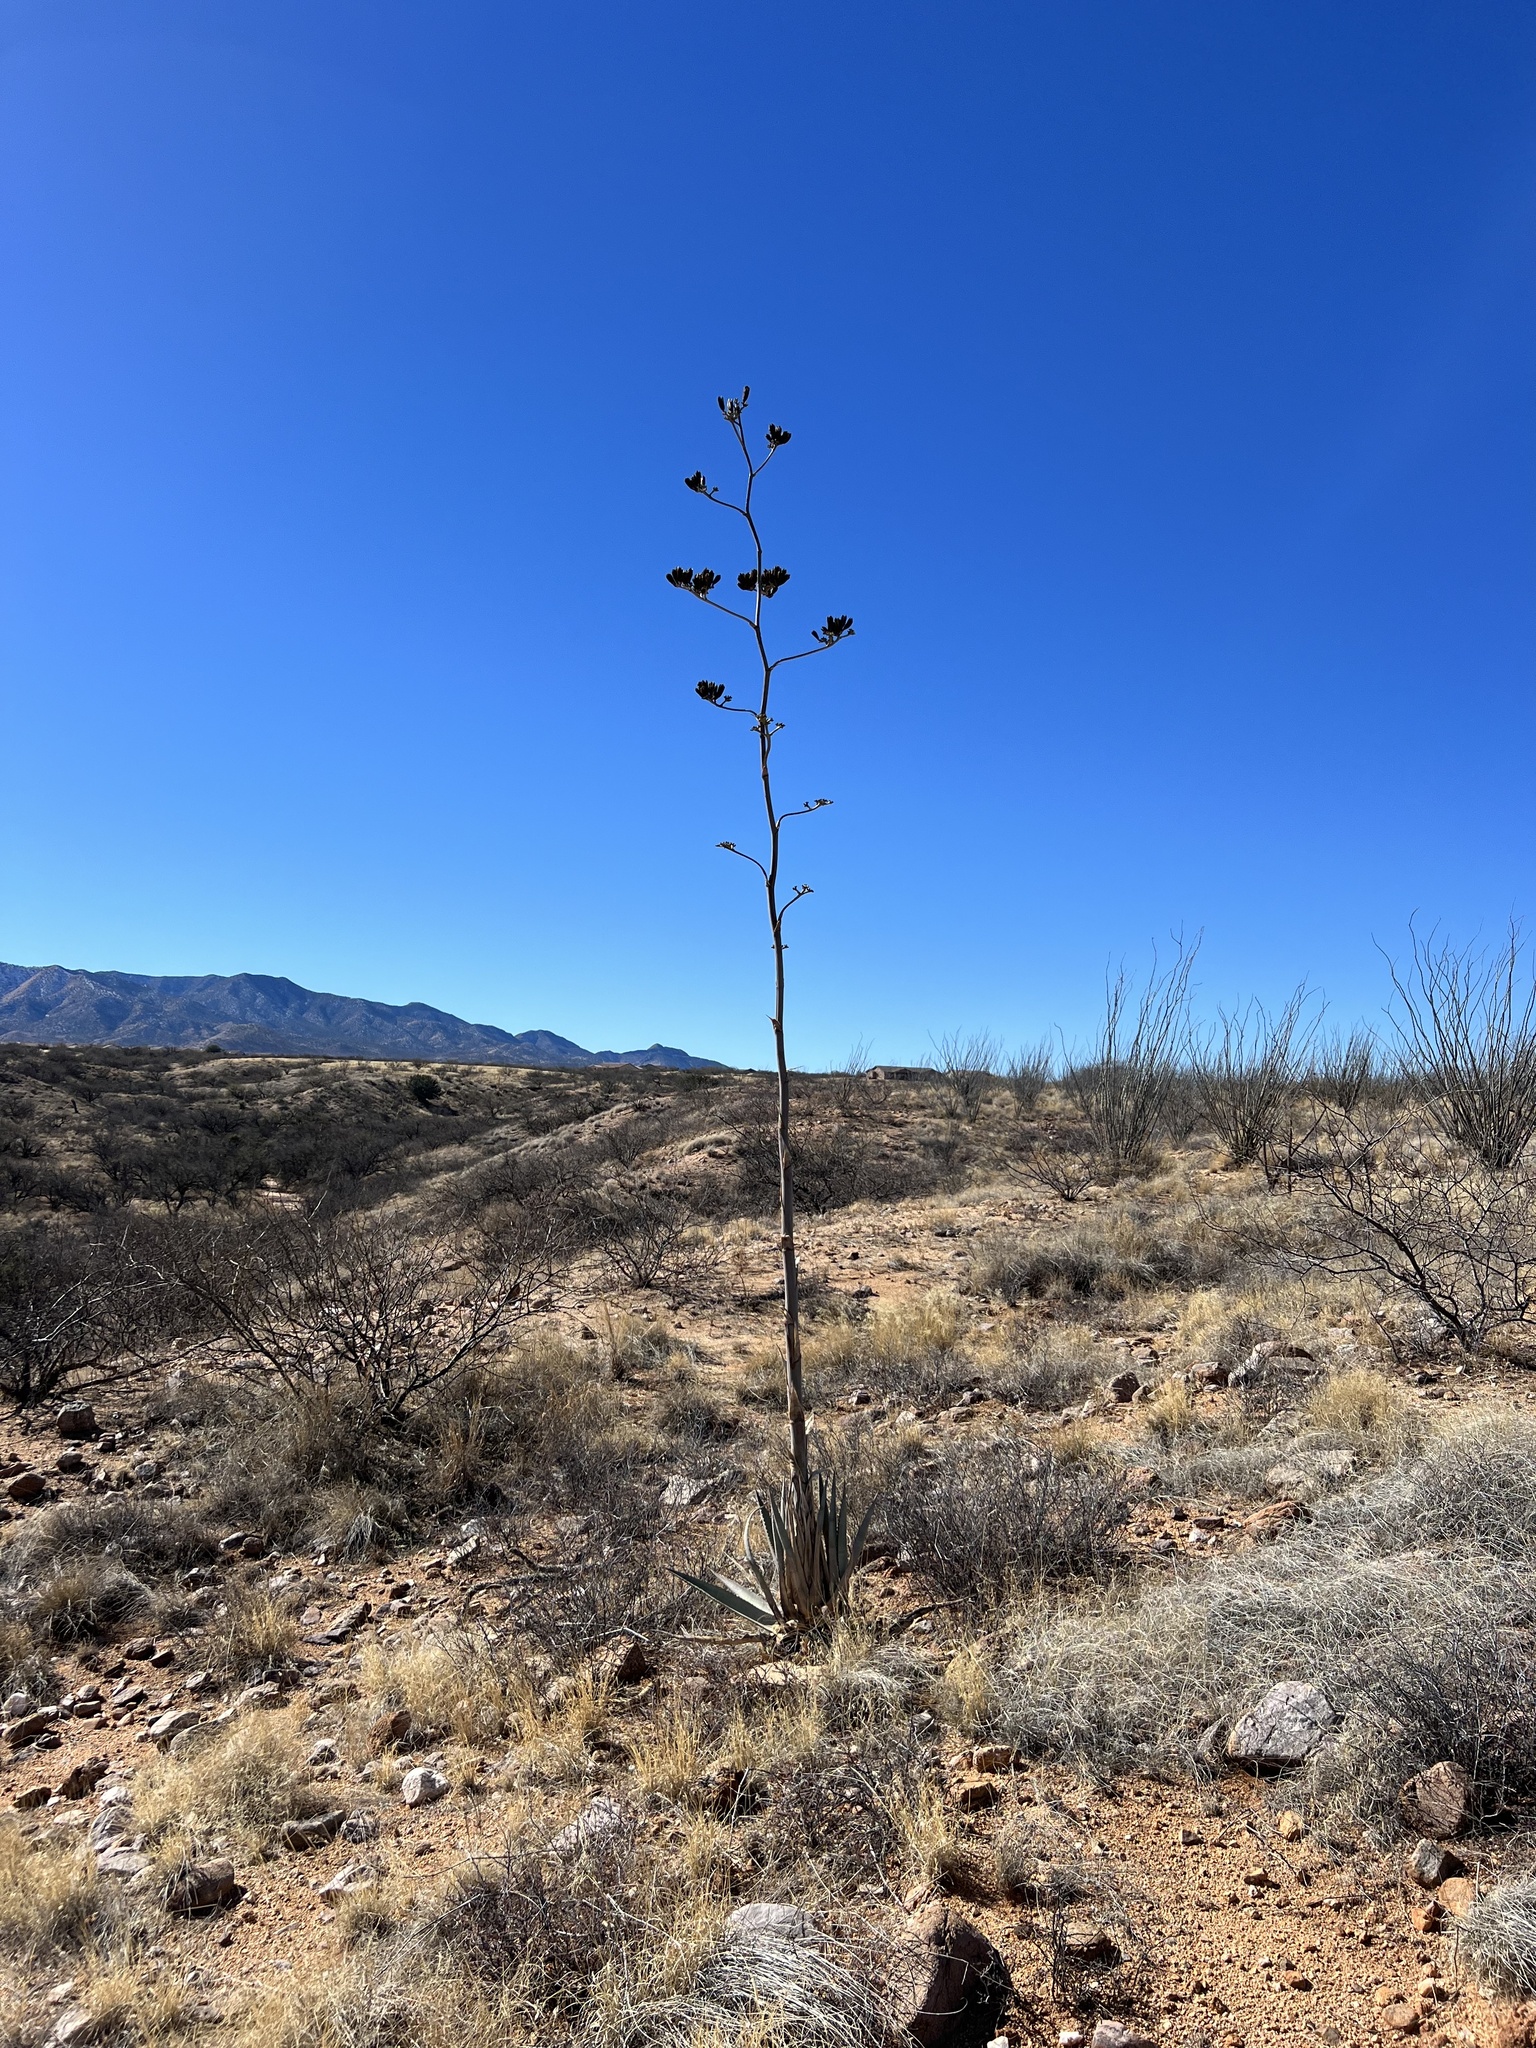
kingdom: Plantae
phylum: Tracheophyta
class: Liliopsida
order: Asparagales
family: Asparagaceae
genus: Agave
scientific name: Agave palmeri
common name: Palmer agave
